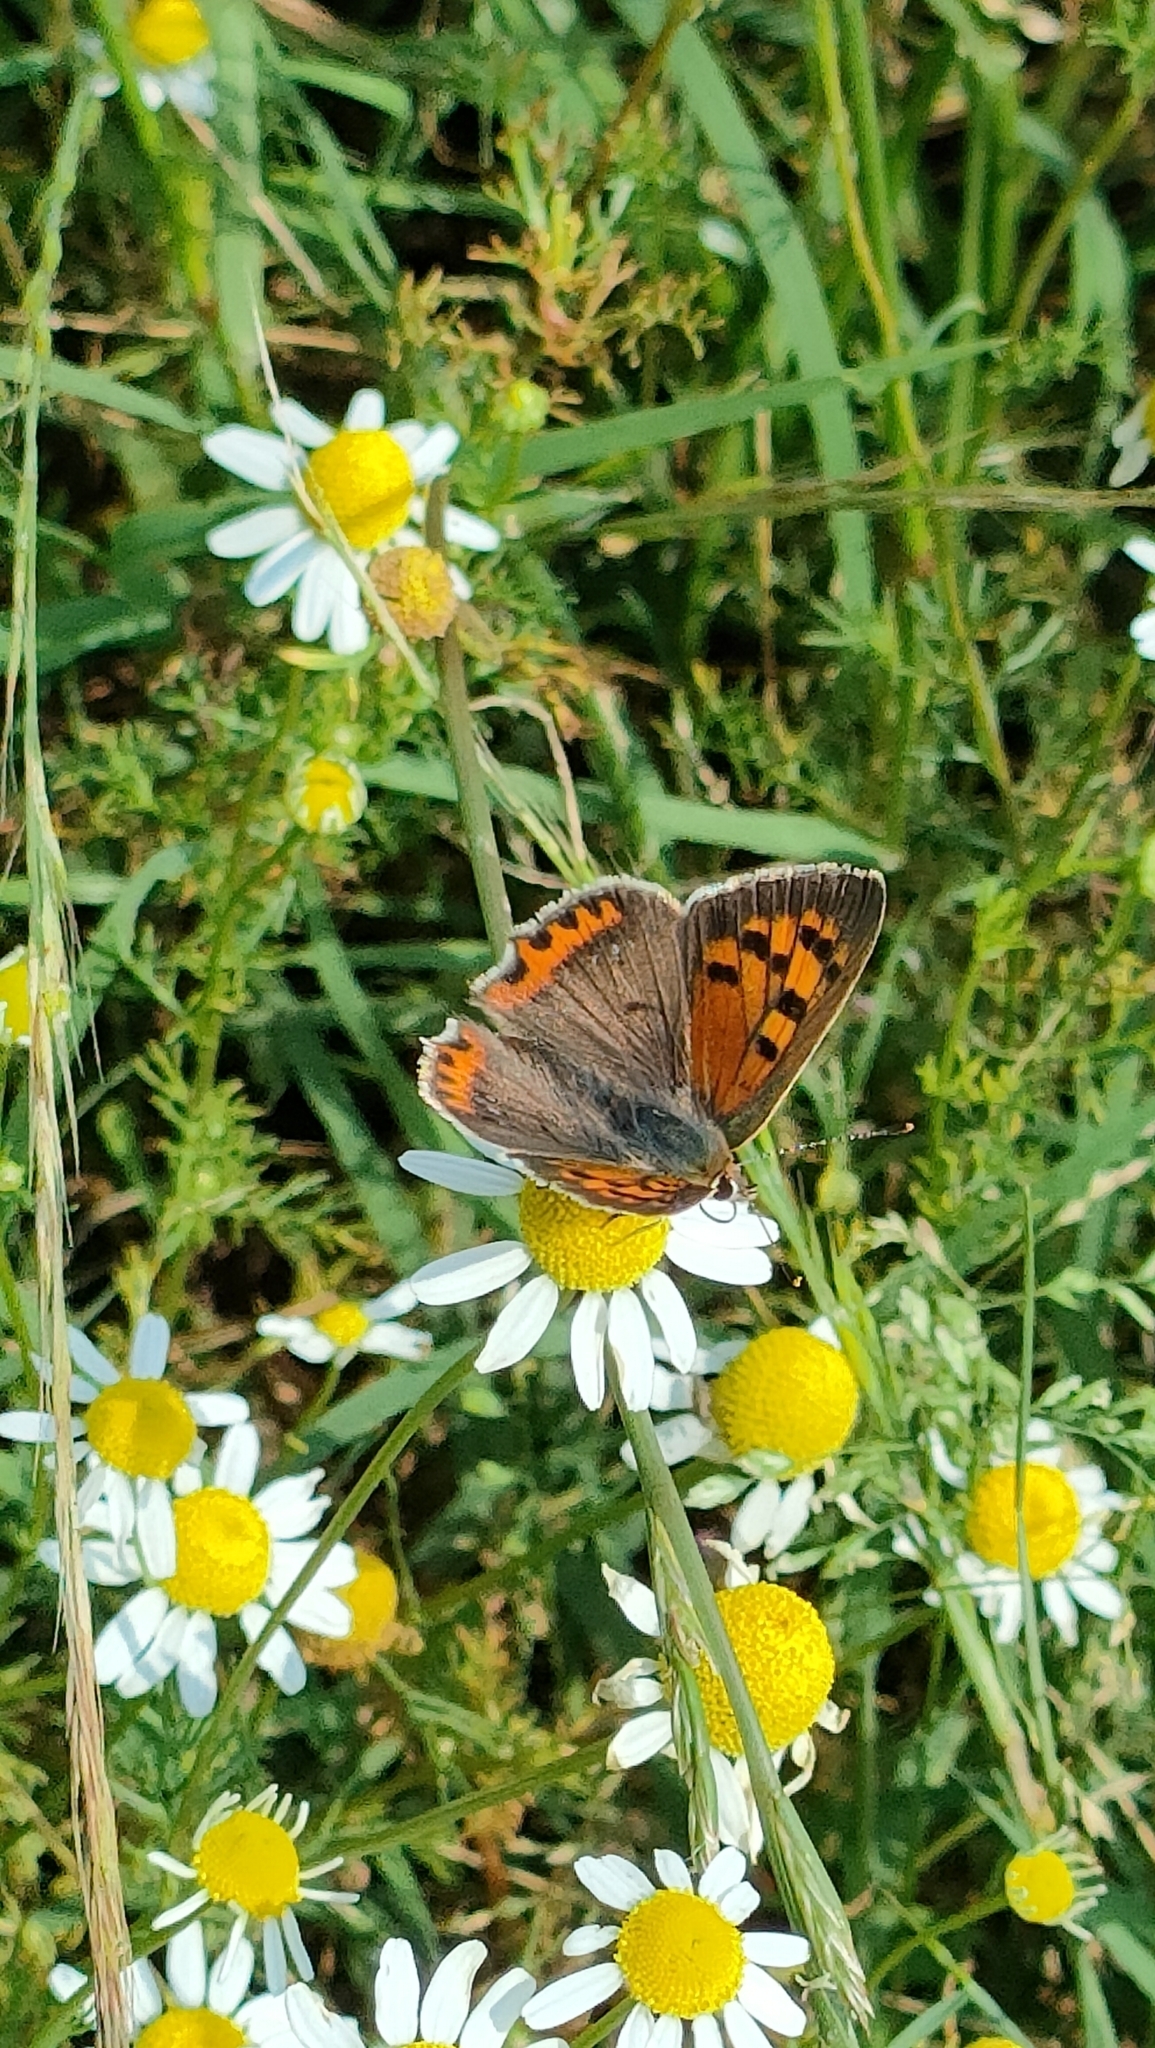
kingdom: Animalia
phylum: Arthropoda
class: Insecta
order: Lepidoptera
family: Lycaenidae
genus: Lycaena
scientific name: Lycaena phlaeas
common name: Small copper
